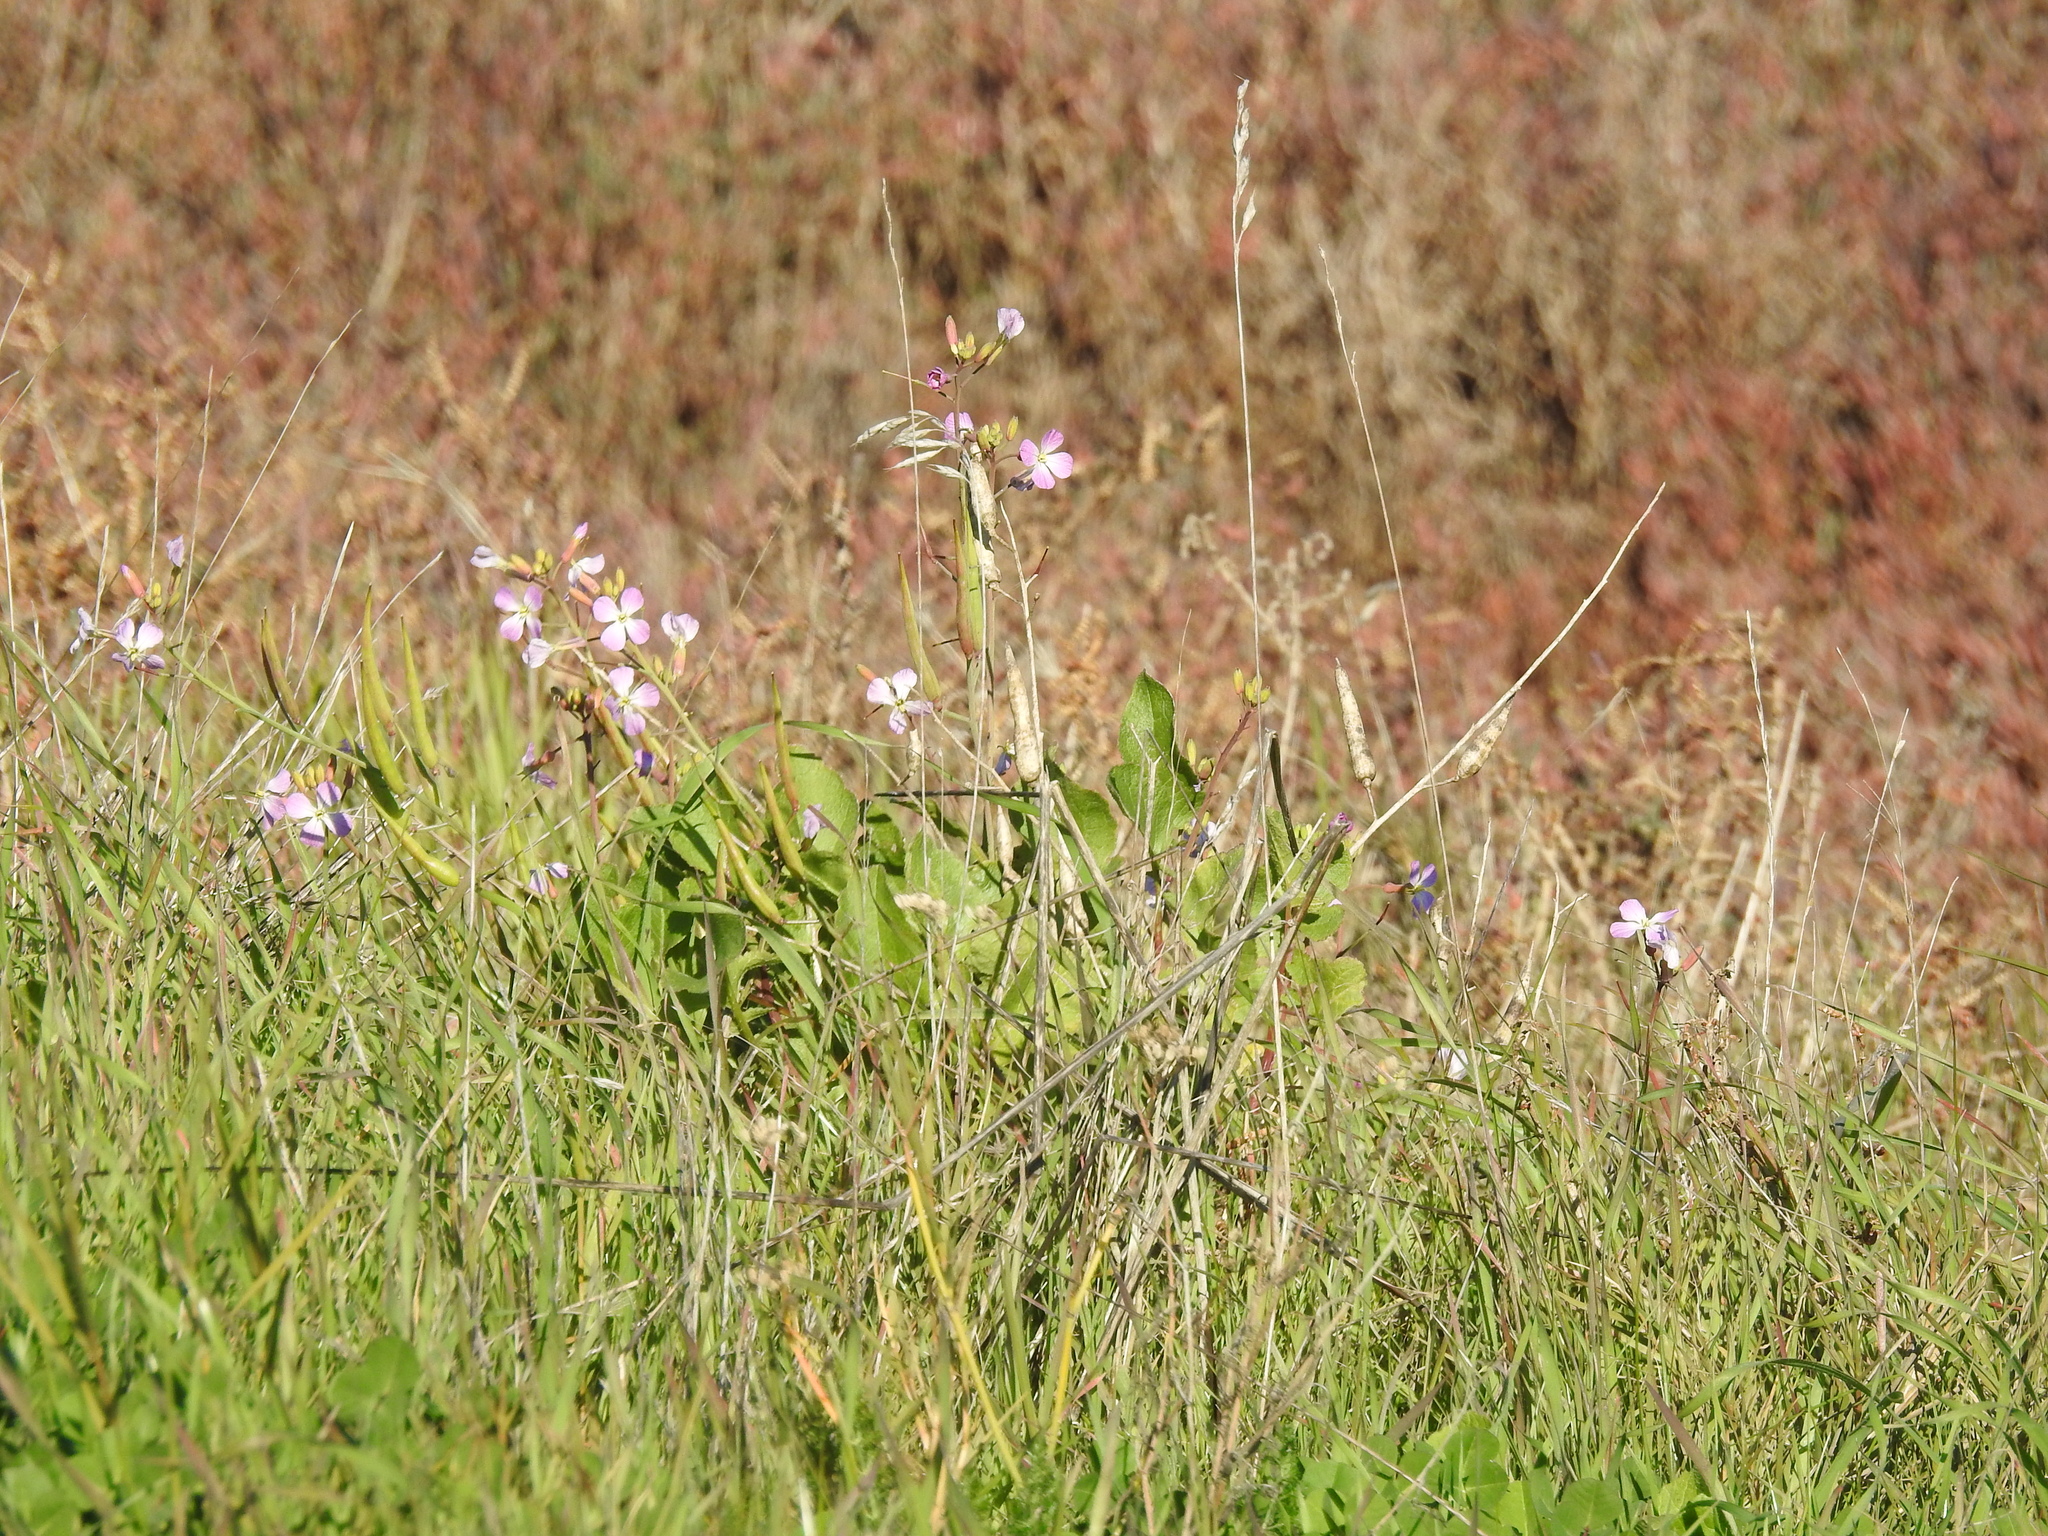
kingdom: Plantae
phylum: Tracheophyta
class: Magnoliopsida
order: Brassicales
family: Brassicaceae
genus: Raphanus
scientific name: Raphanus sativus
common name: Cultivated radish
